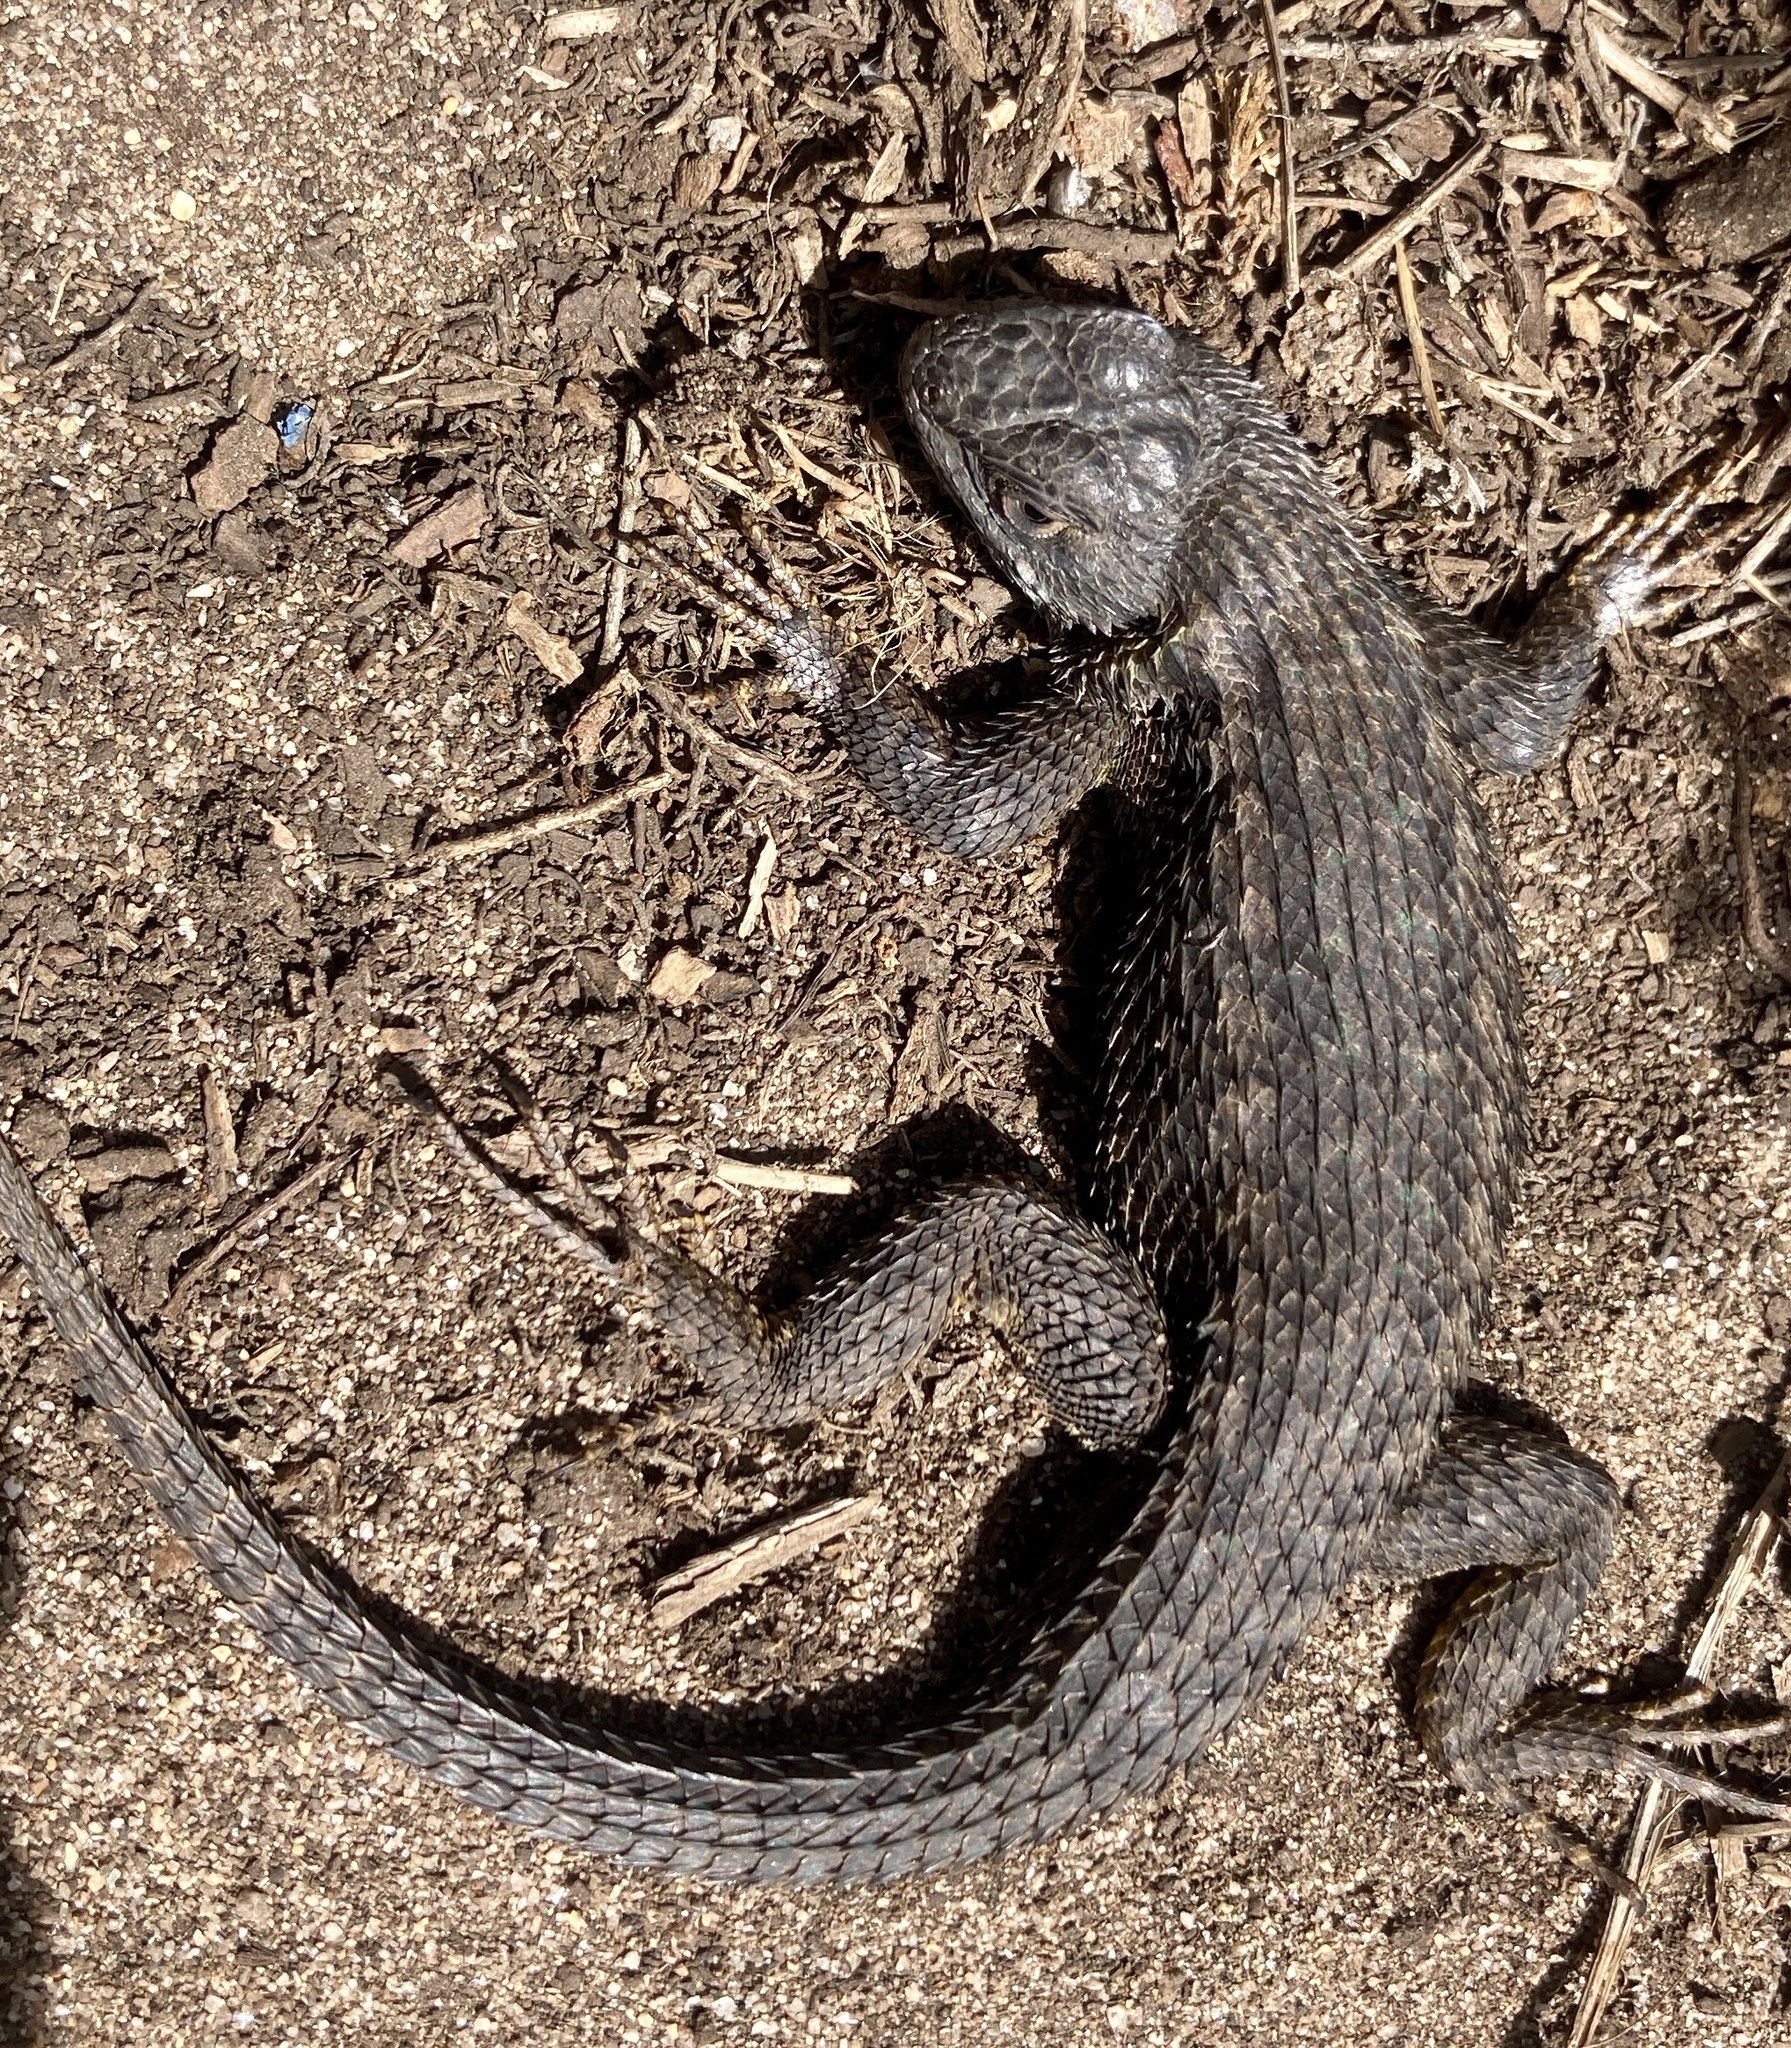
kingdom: Animalia
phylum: Chordata
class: Squamata
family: Phrynosomatidae
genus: Sceloporus
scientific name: Sceloporus occidentalis
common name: Western fence lizard
